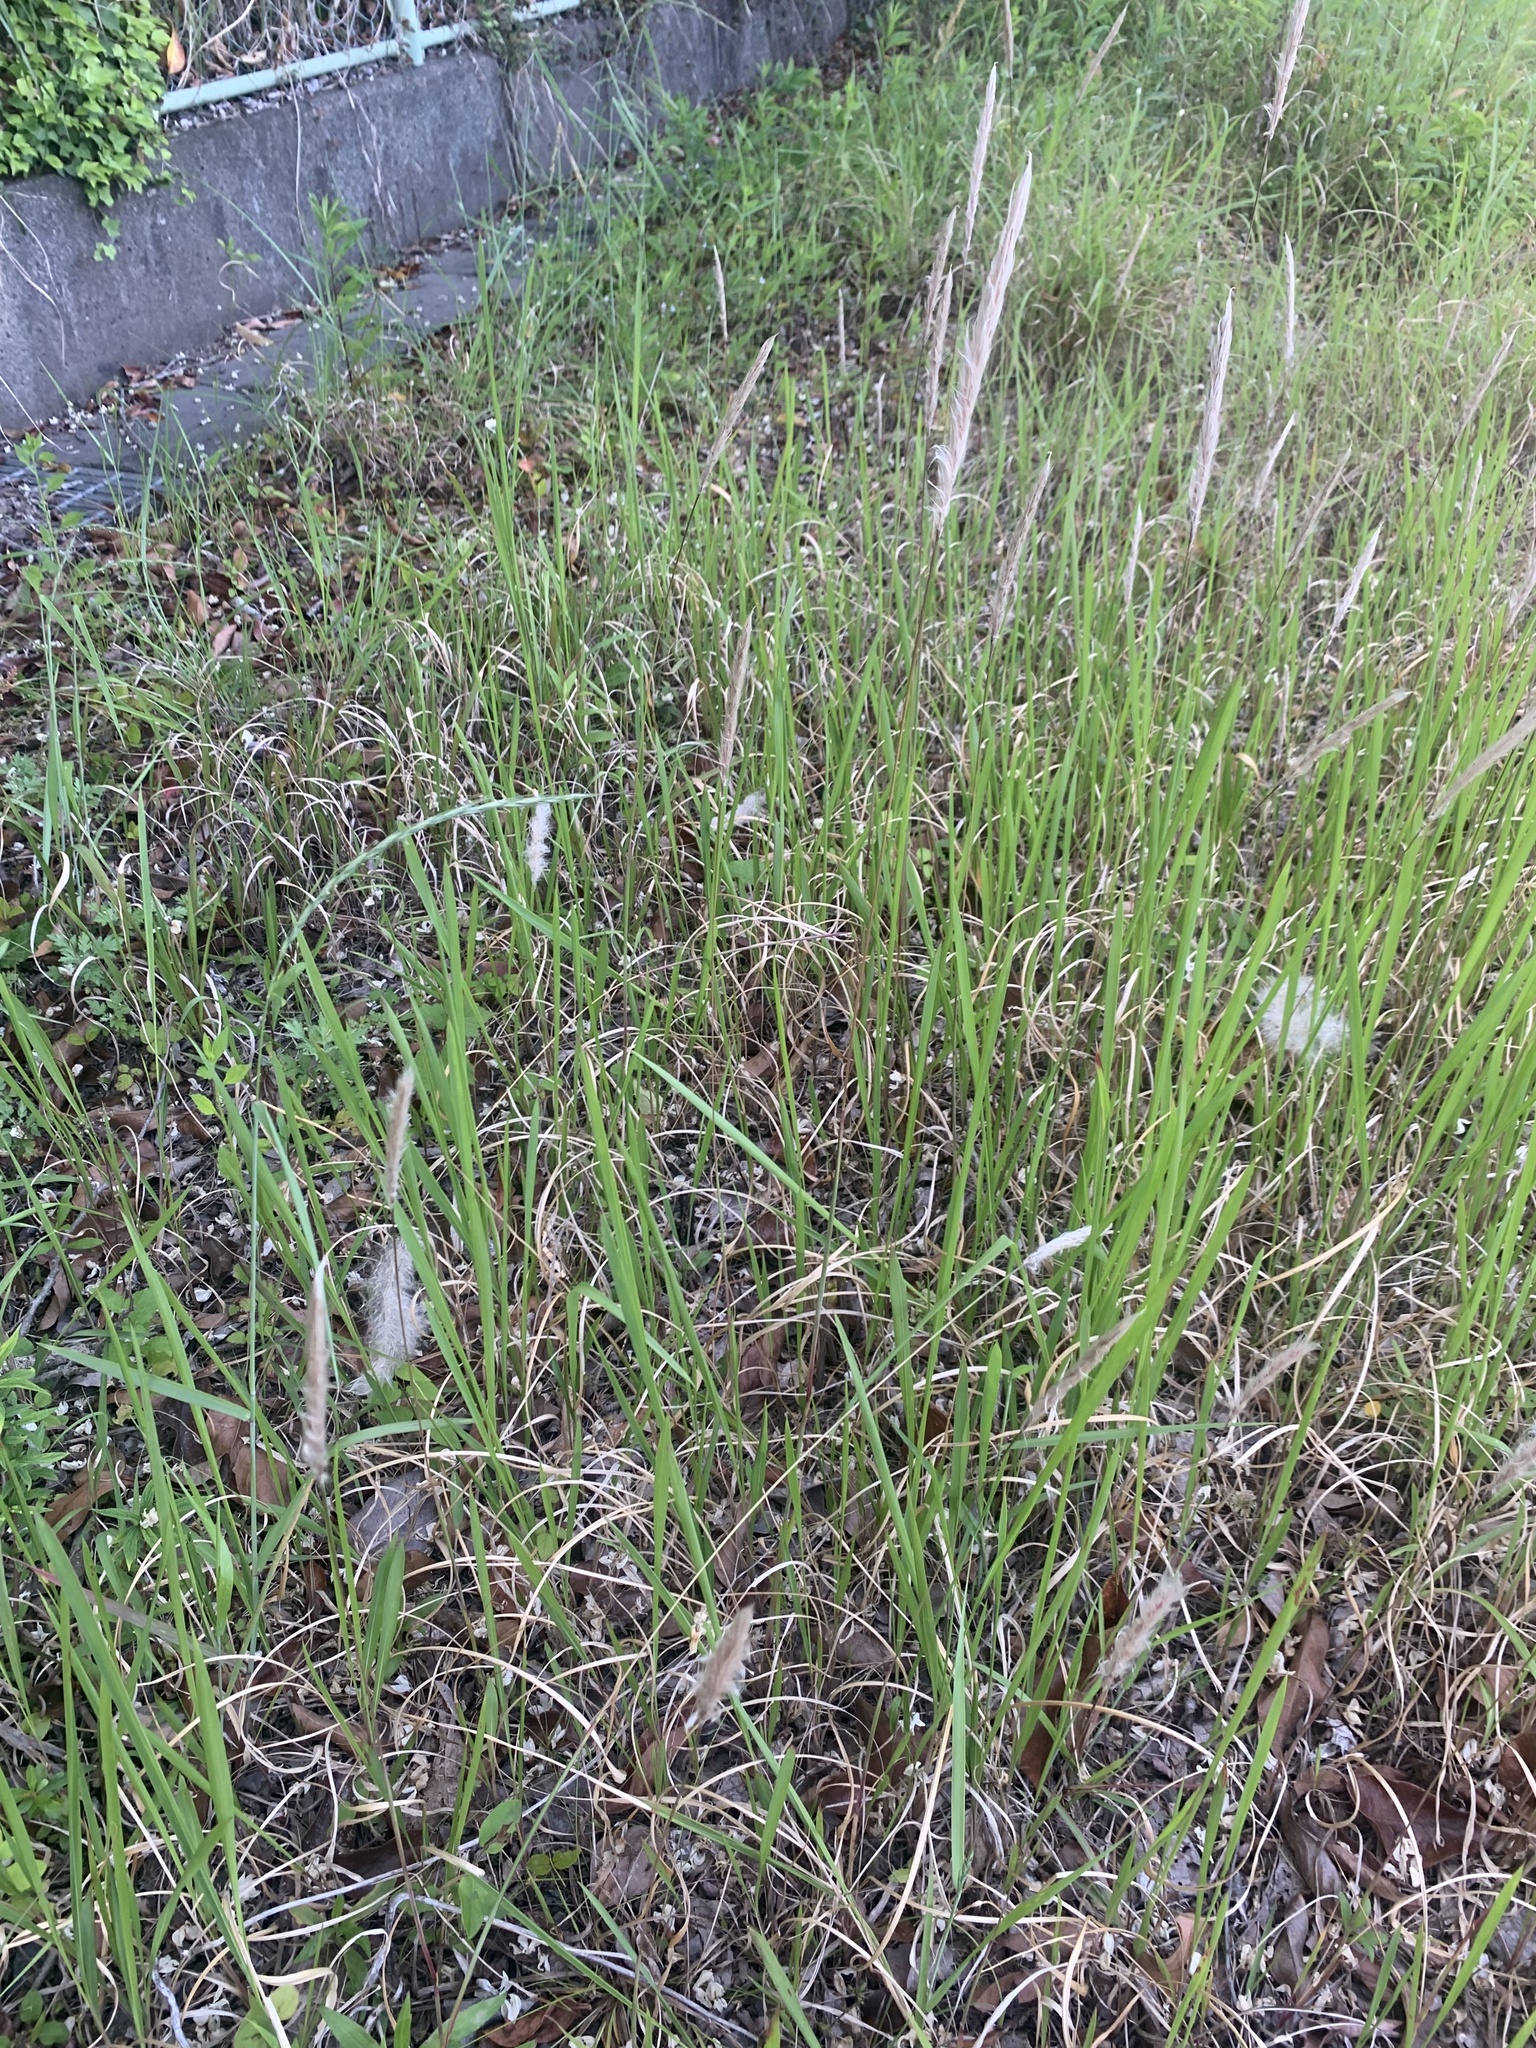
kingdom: Plantae
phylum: Tracheophyta
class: Liliopsida
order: Poales
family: Poaceae
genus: Imperata
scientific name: Imperata cylindrica
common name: Cogongrass
